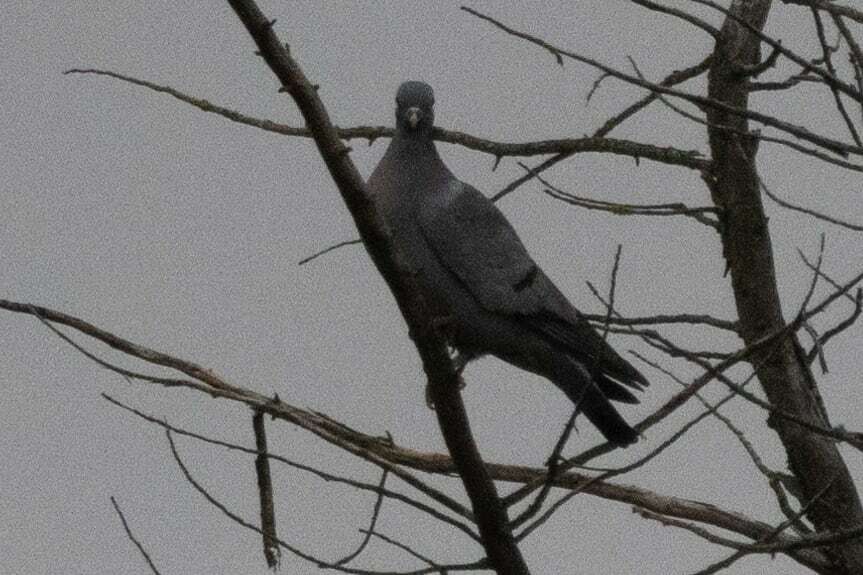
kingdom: Animalia
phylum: Chordata
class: Aves
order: Columbiformes
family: Columbidae
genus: Columba
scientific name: Columba oenas
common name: Stock dove
